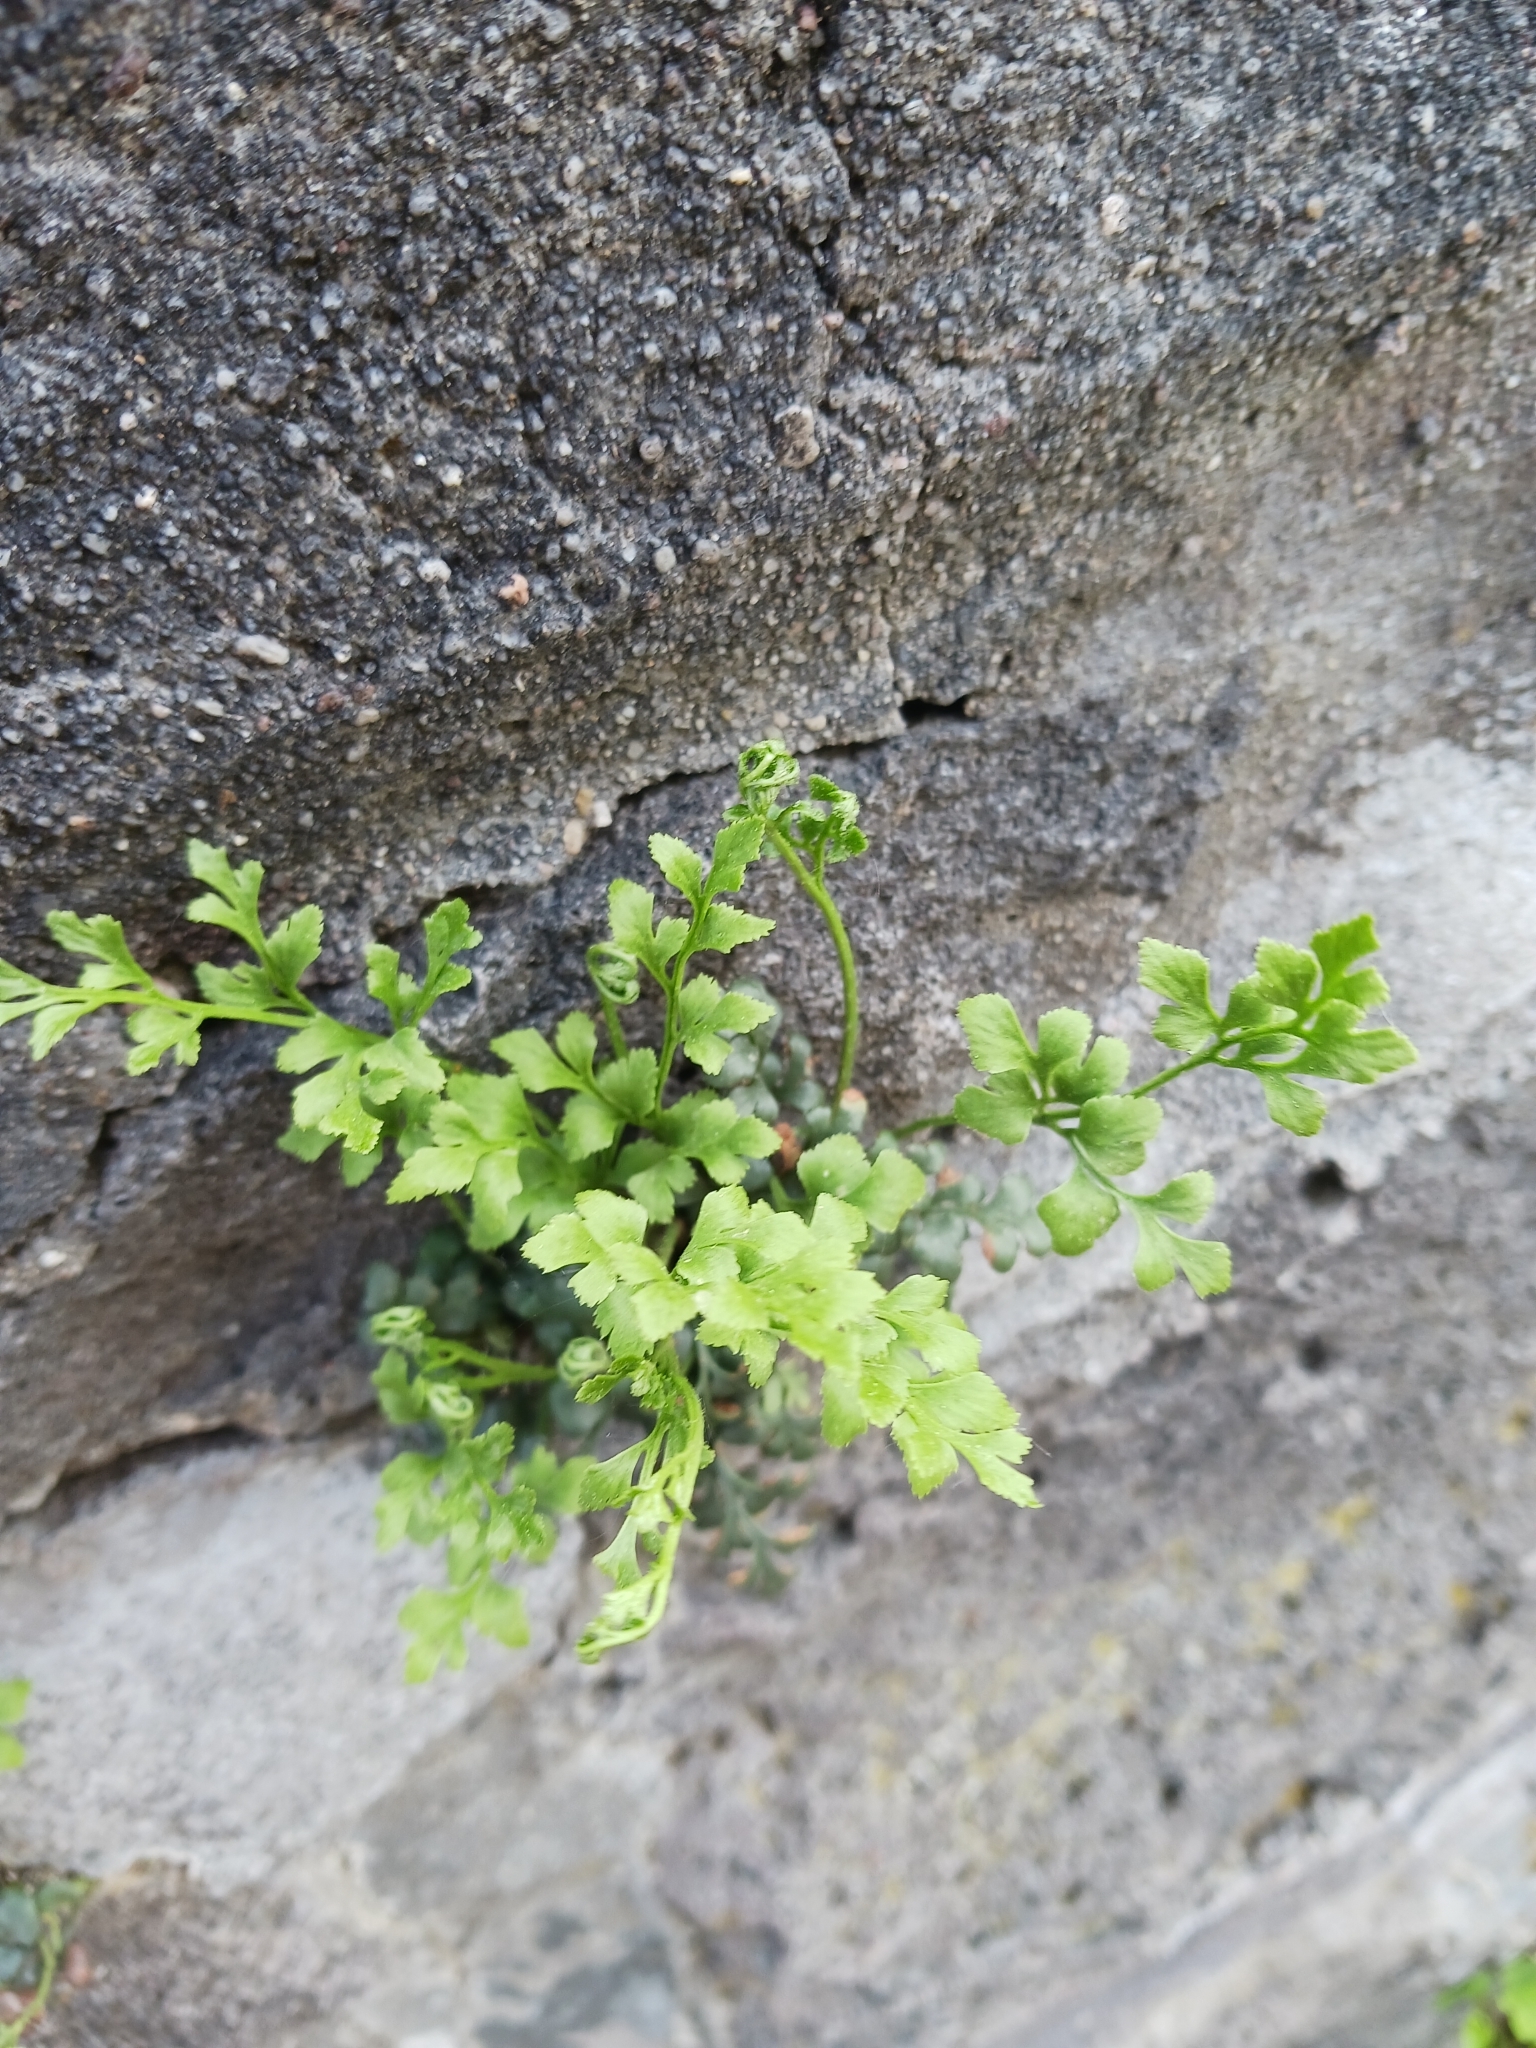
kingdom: Plantae
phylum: Tracheophyta
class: Polypodiopsida
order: Polypodiales
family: Aspleniaceae
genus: Asplenium
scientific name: Asplenium ruta-muraria
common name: Wall-rue
